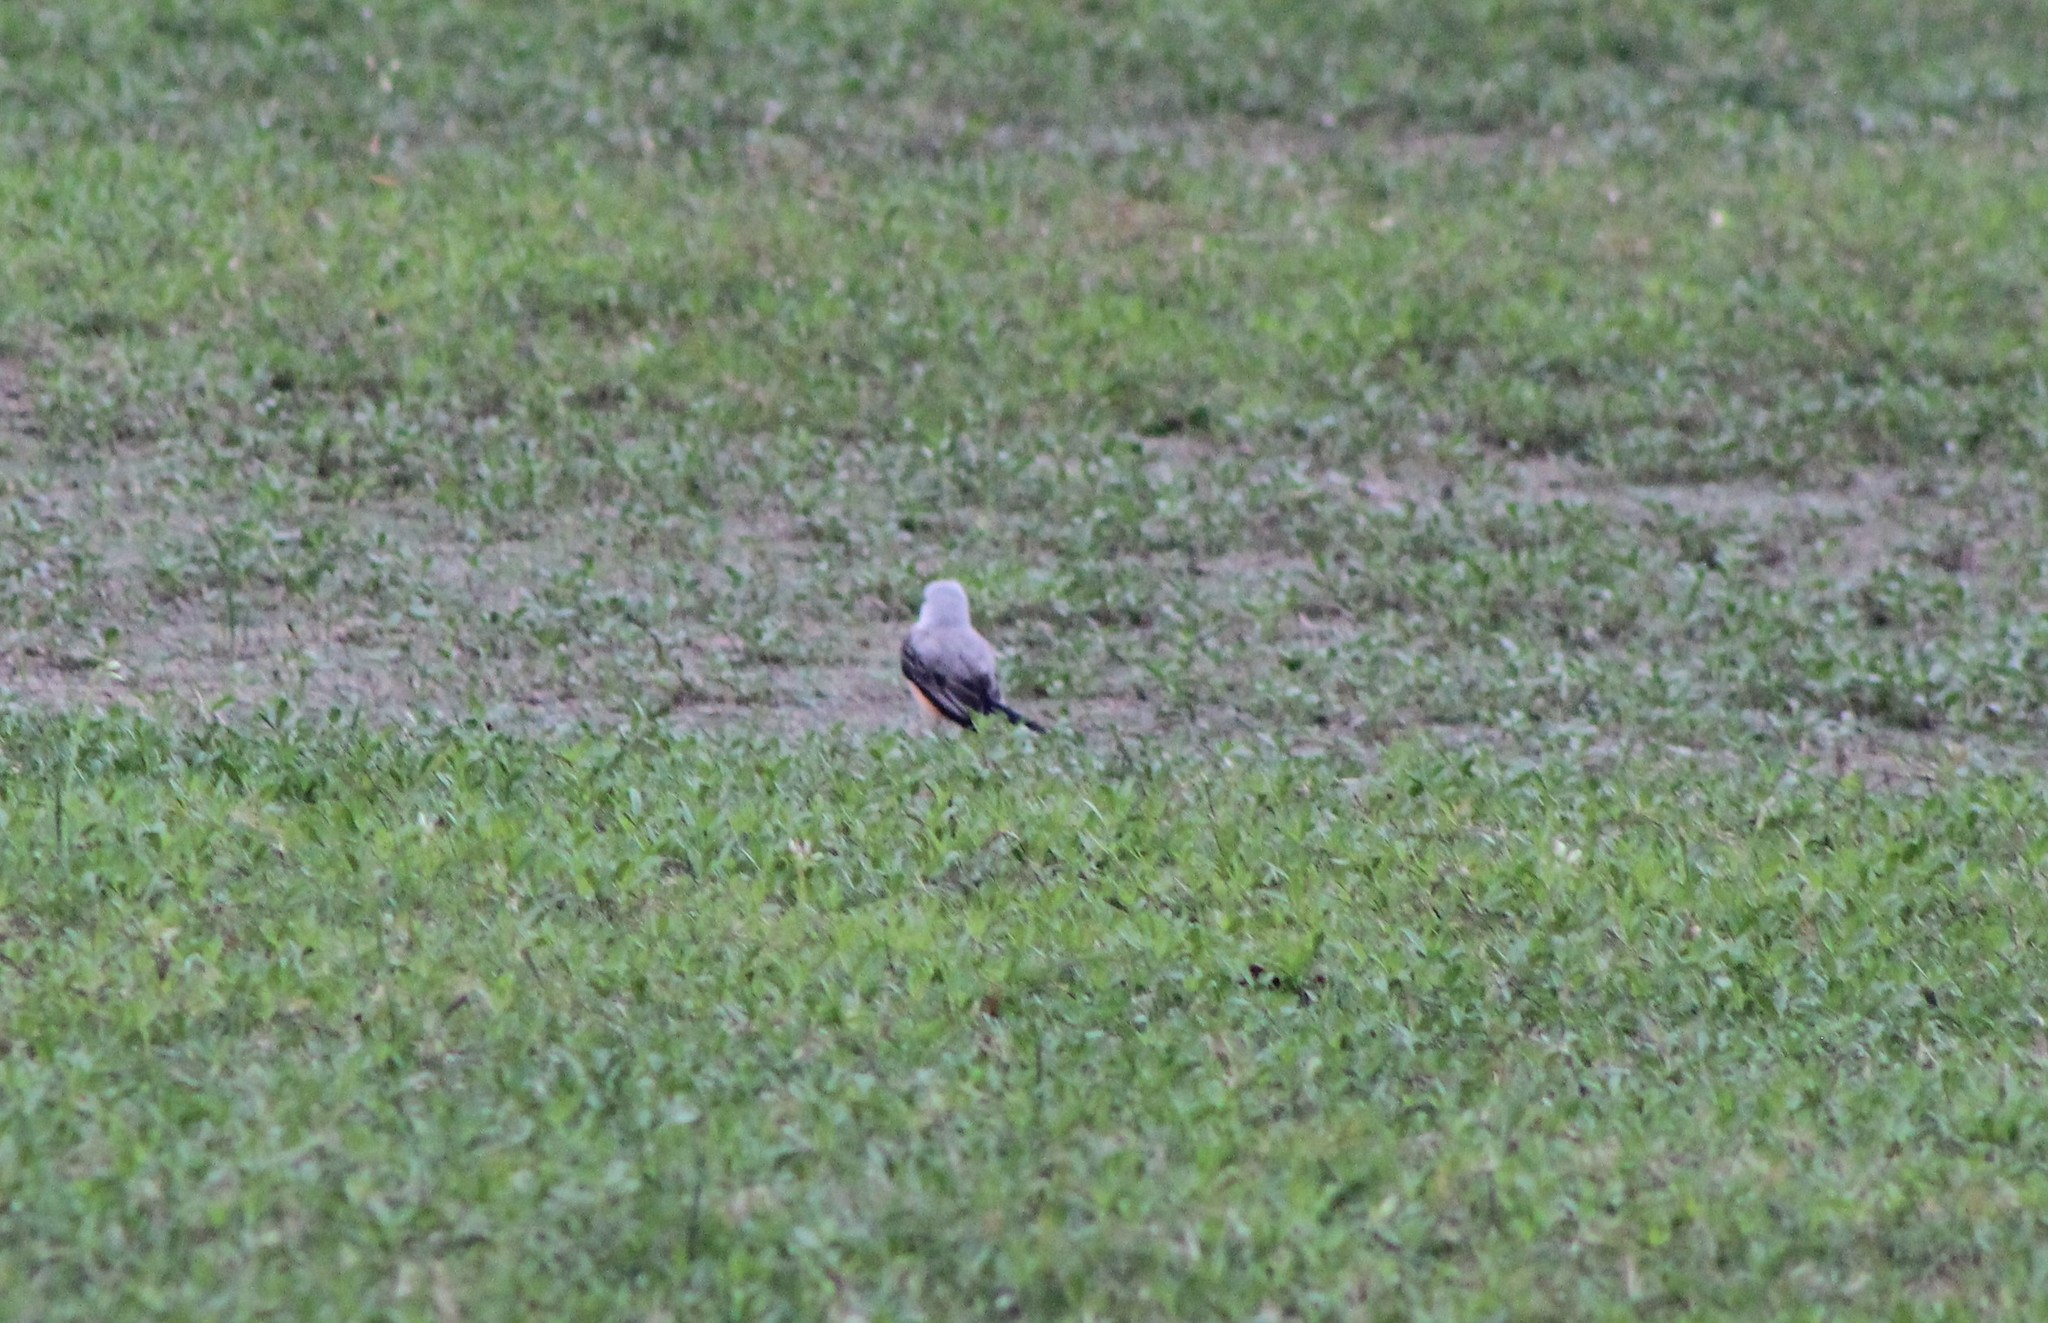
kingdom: Animalia
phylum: Chordata
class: Aves
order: Passeriformes
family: Tyrannidae
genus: Tyrannus
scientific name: Tyrannus forficatus
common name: Scissor-tailed flycatcher
